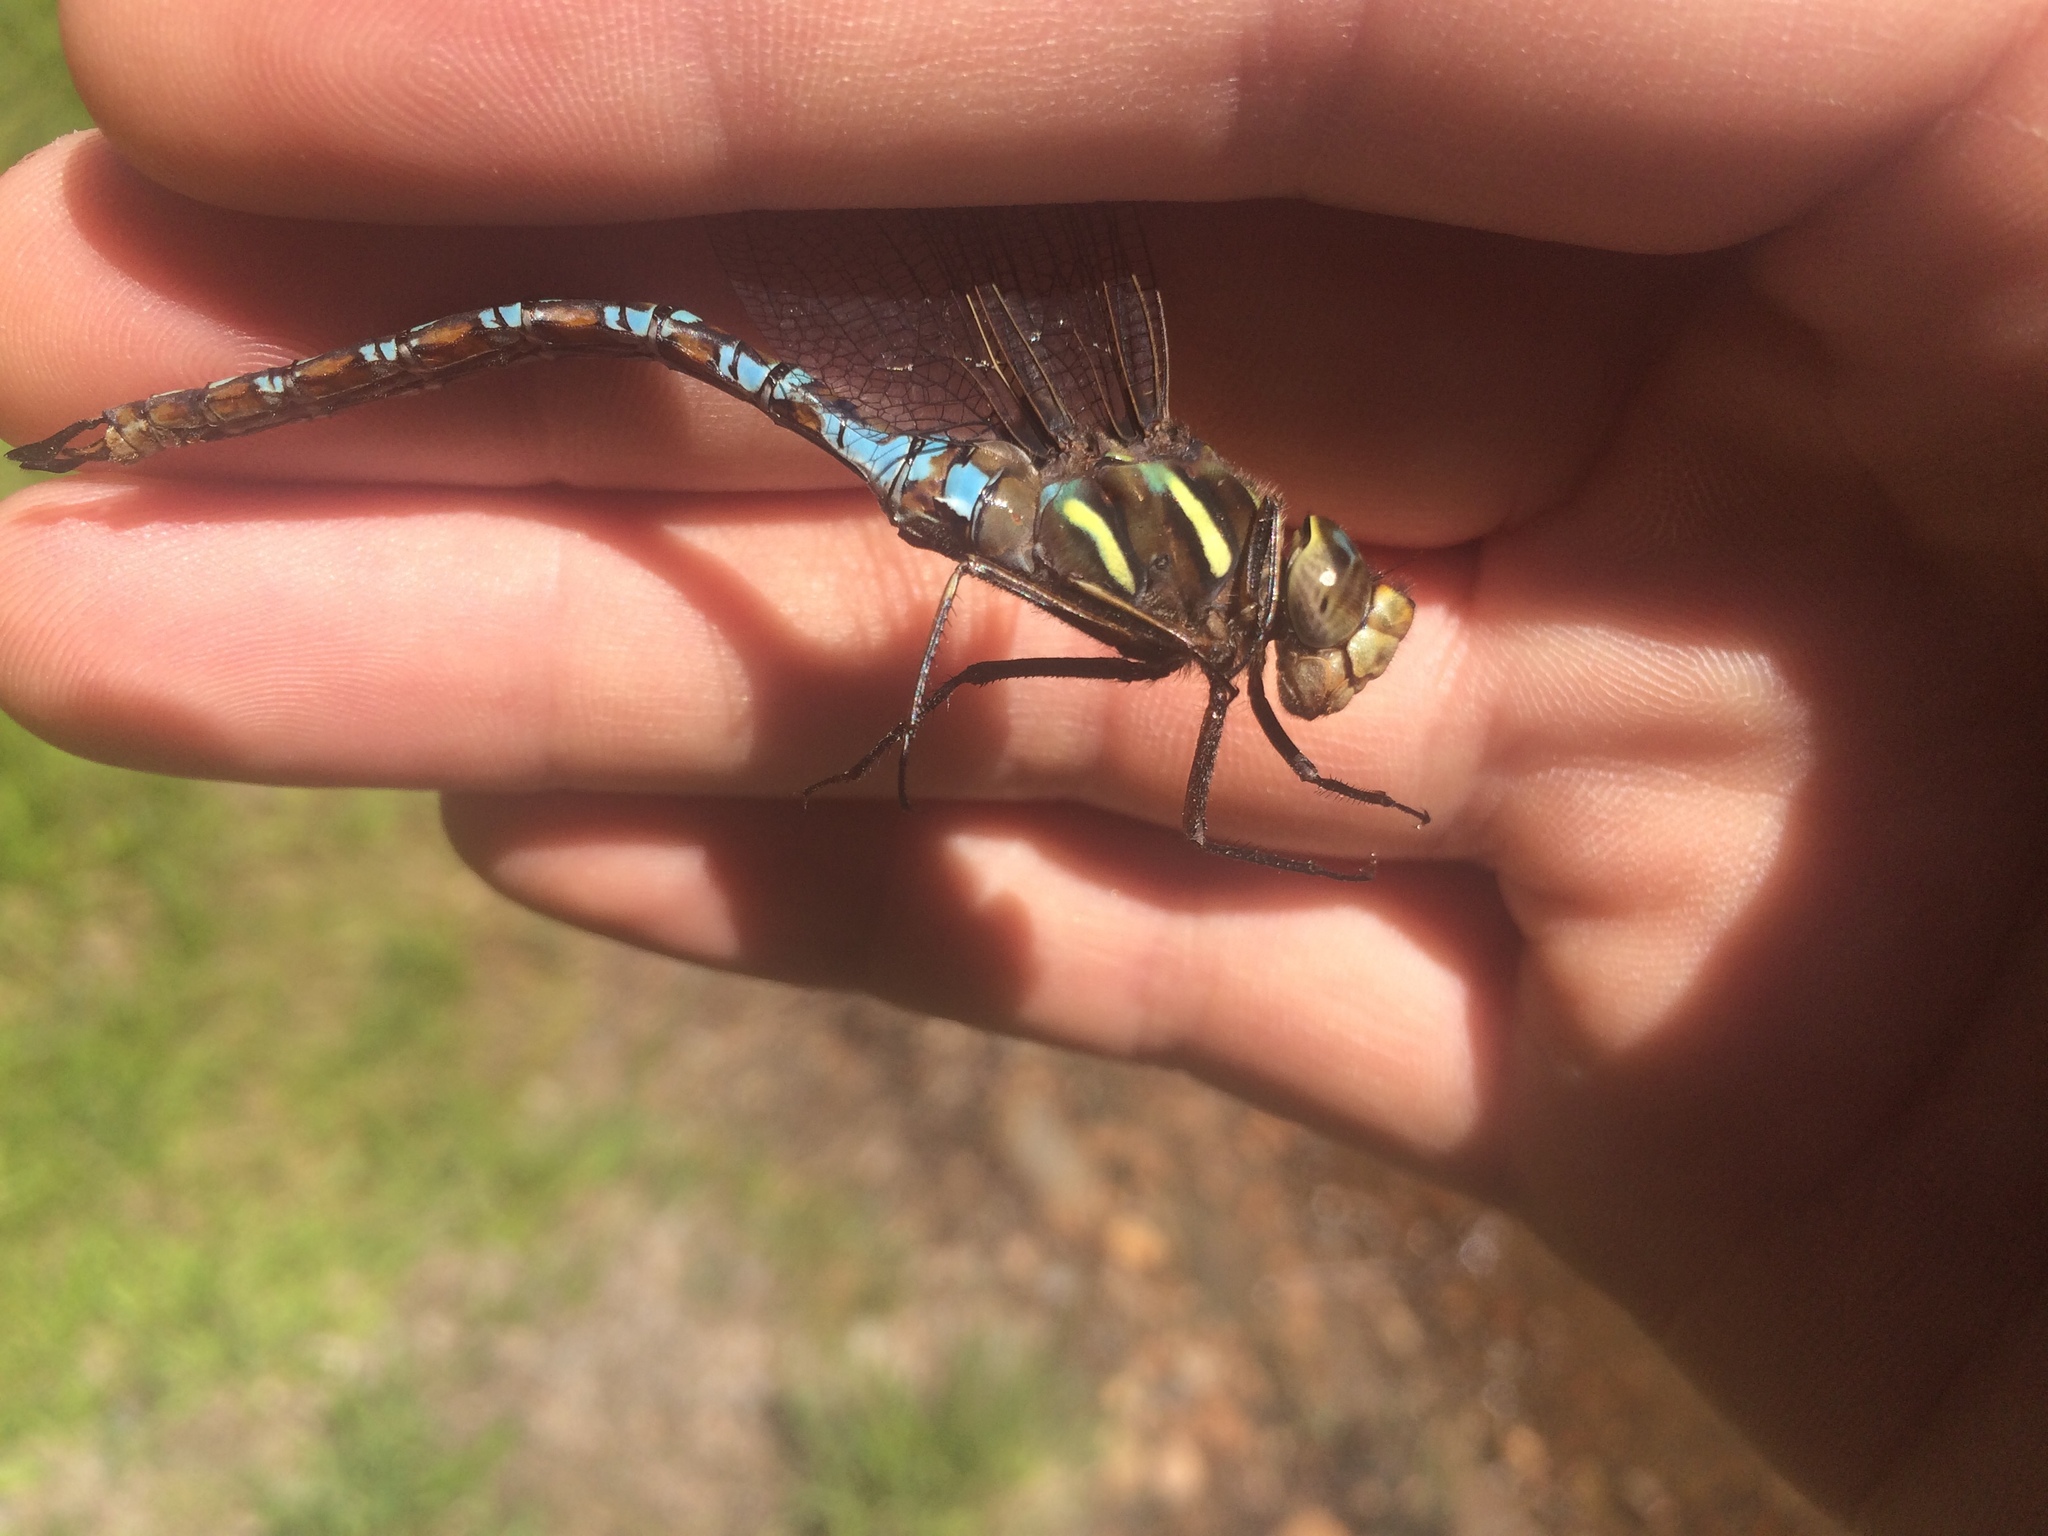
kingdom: Animalia
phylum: Arthropoda
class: Insecta
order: Odonata
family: Aeshnidae
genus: Basiaeschna
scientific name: Basiaeschna janata
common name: Springtime darner
